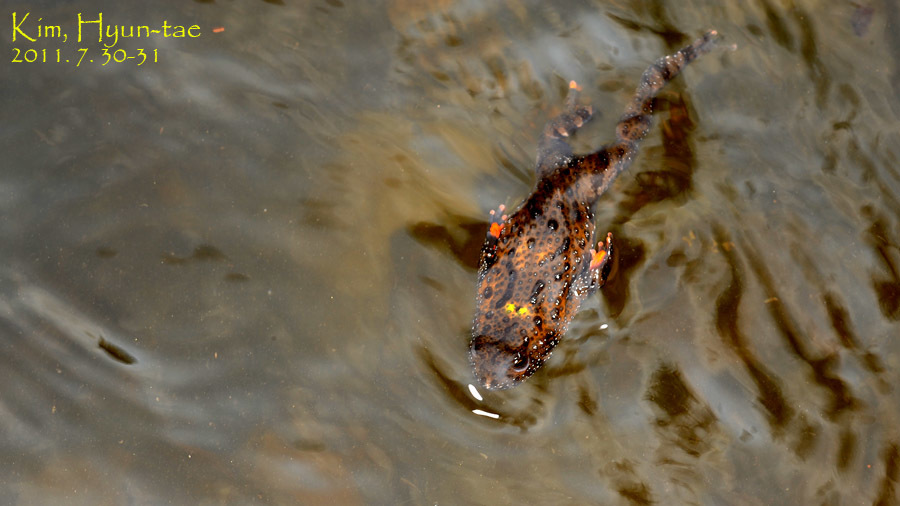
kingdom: Animalia
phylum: Chordata
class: Amphibia
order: Anura
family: Bombinatoridae
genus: Bombina
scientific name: Bombina orientalis
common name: Oriental firebelly toad
